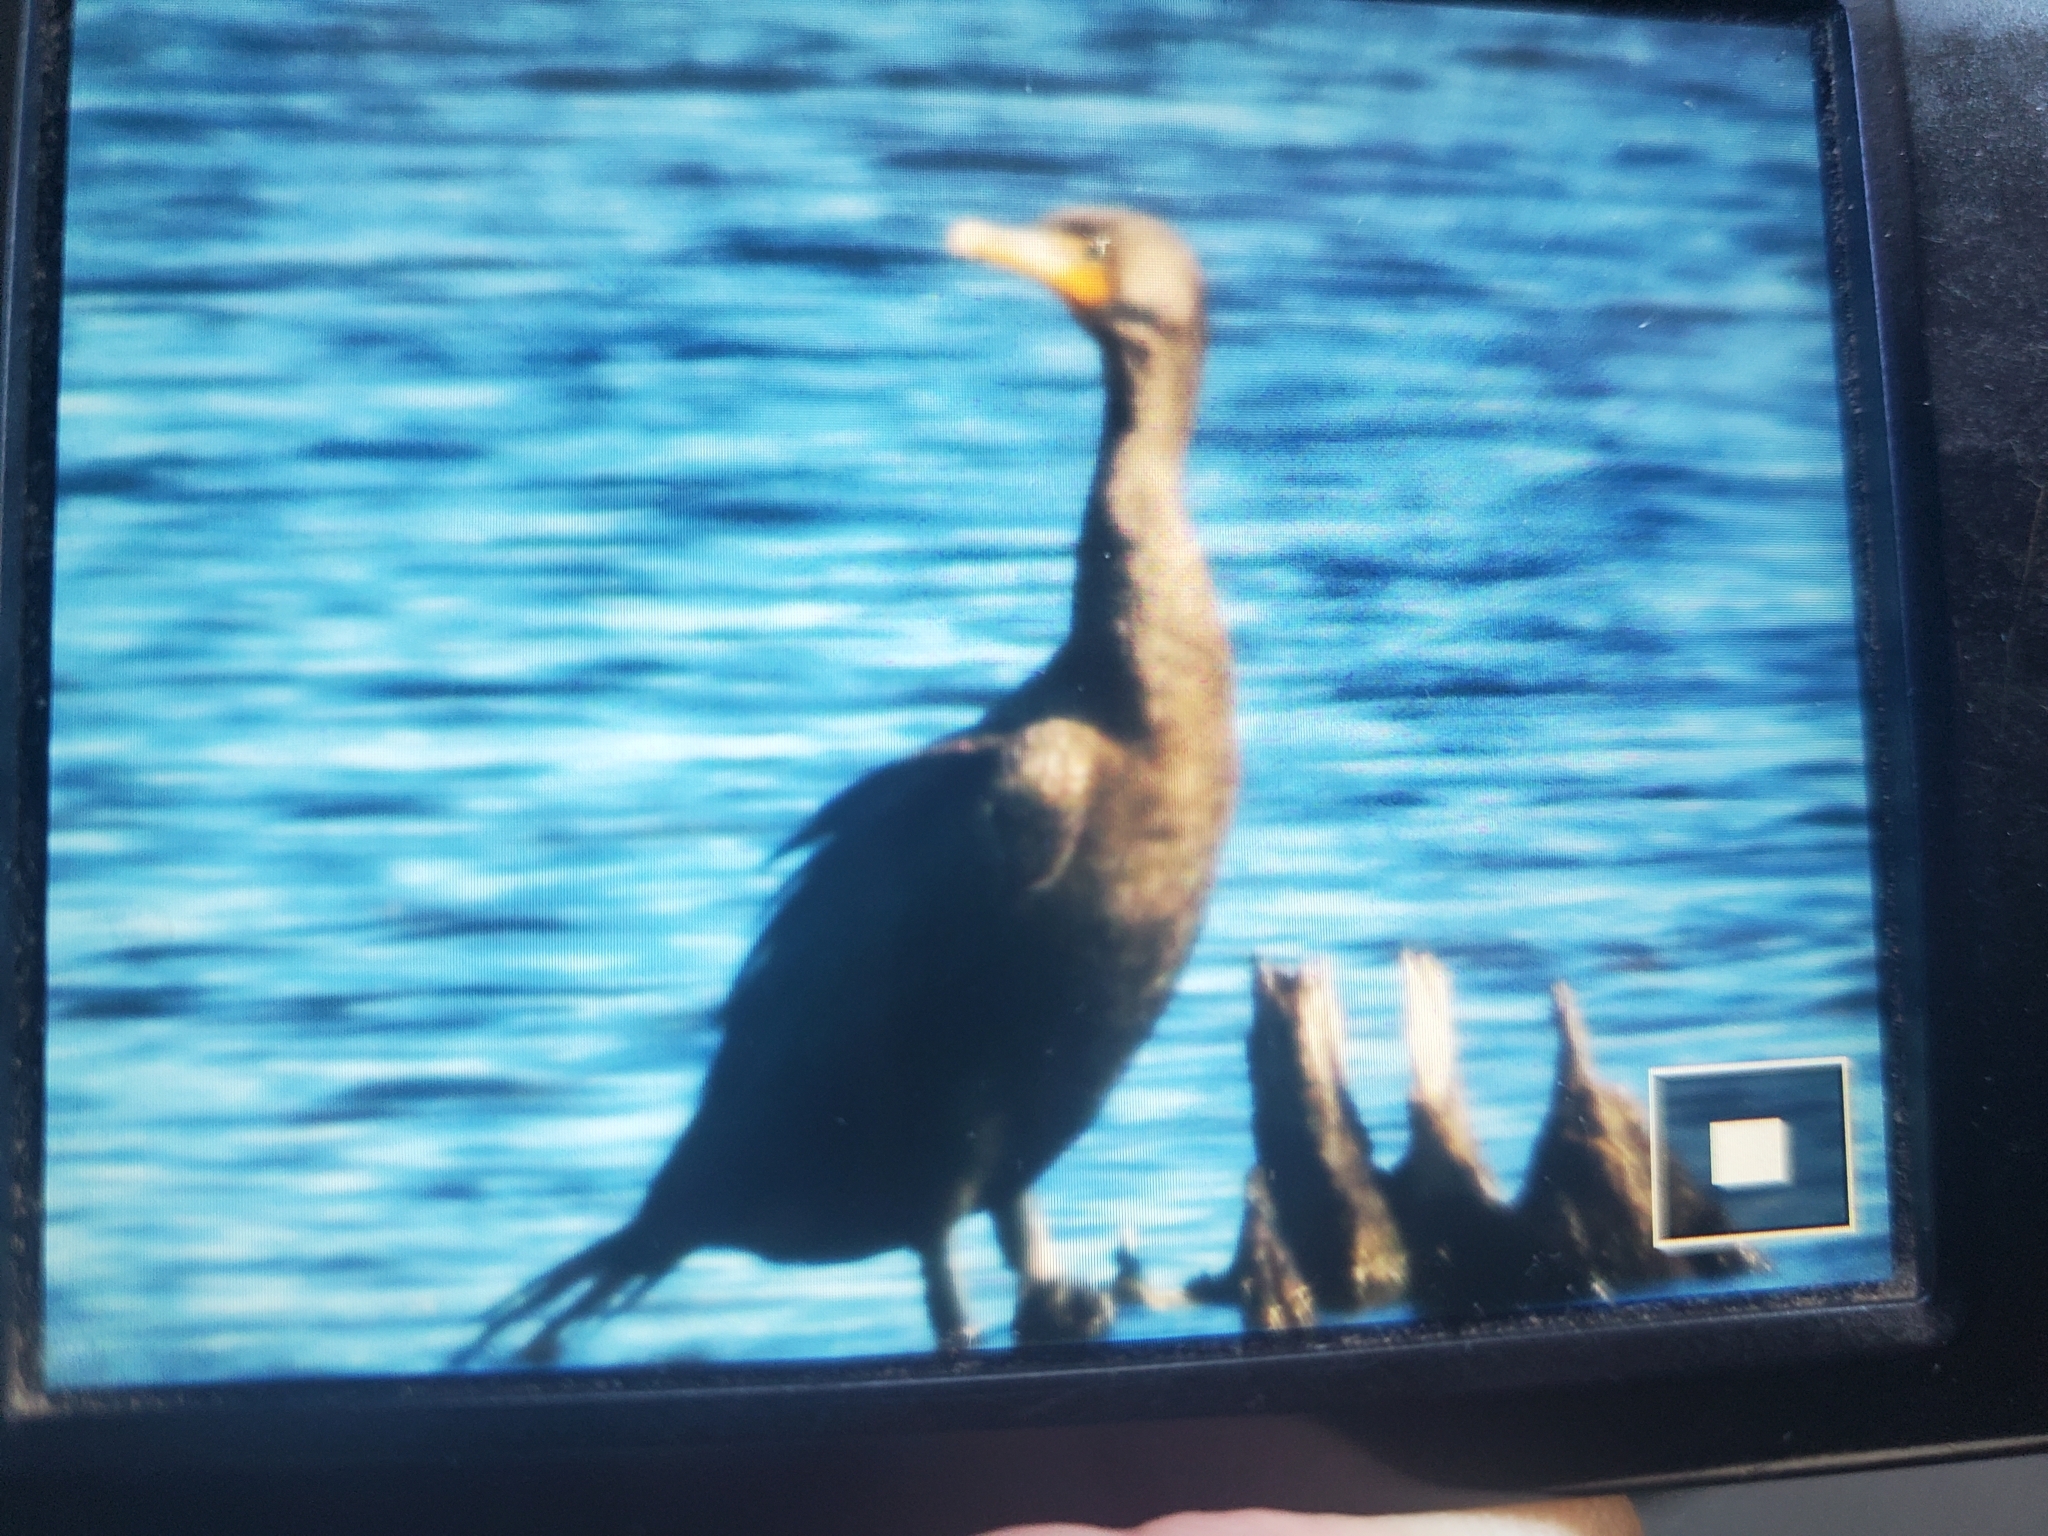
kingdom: Animalia
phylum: Chordata
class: Aves
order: Suliformes
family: Phalacrocoracidae
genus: Phalacrocorax
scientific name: Phalacrocorax auritus
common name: Double-crested cormorant
